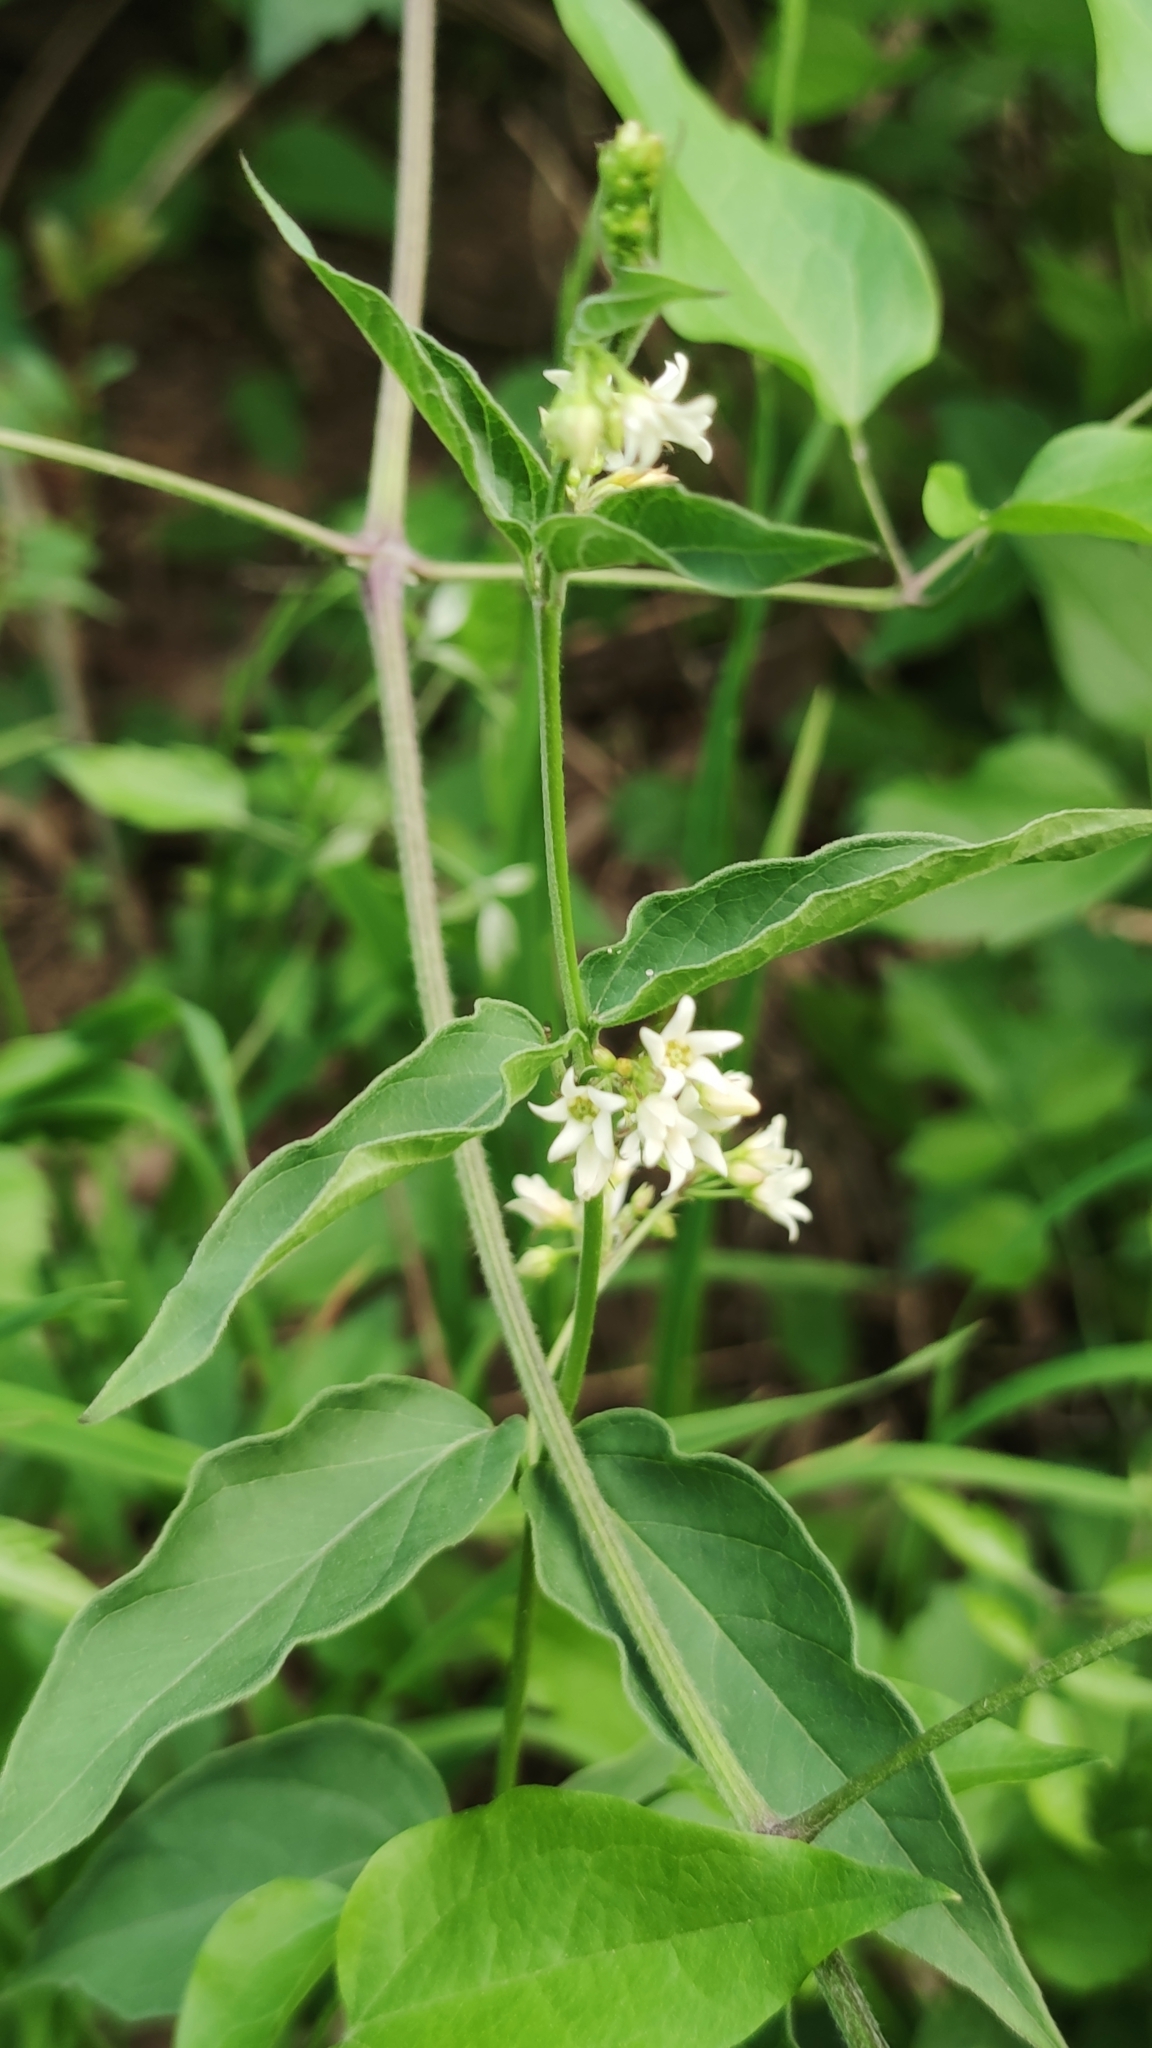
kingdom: Plantae
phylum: Tracheophyta
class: Magnoliopsida
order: Gentianales
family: Apocynaceae
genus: Vincetoxicum
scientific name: Vincetoxicum hirundinaria
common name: White swallowwort
